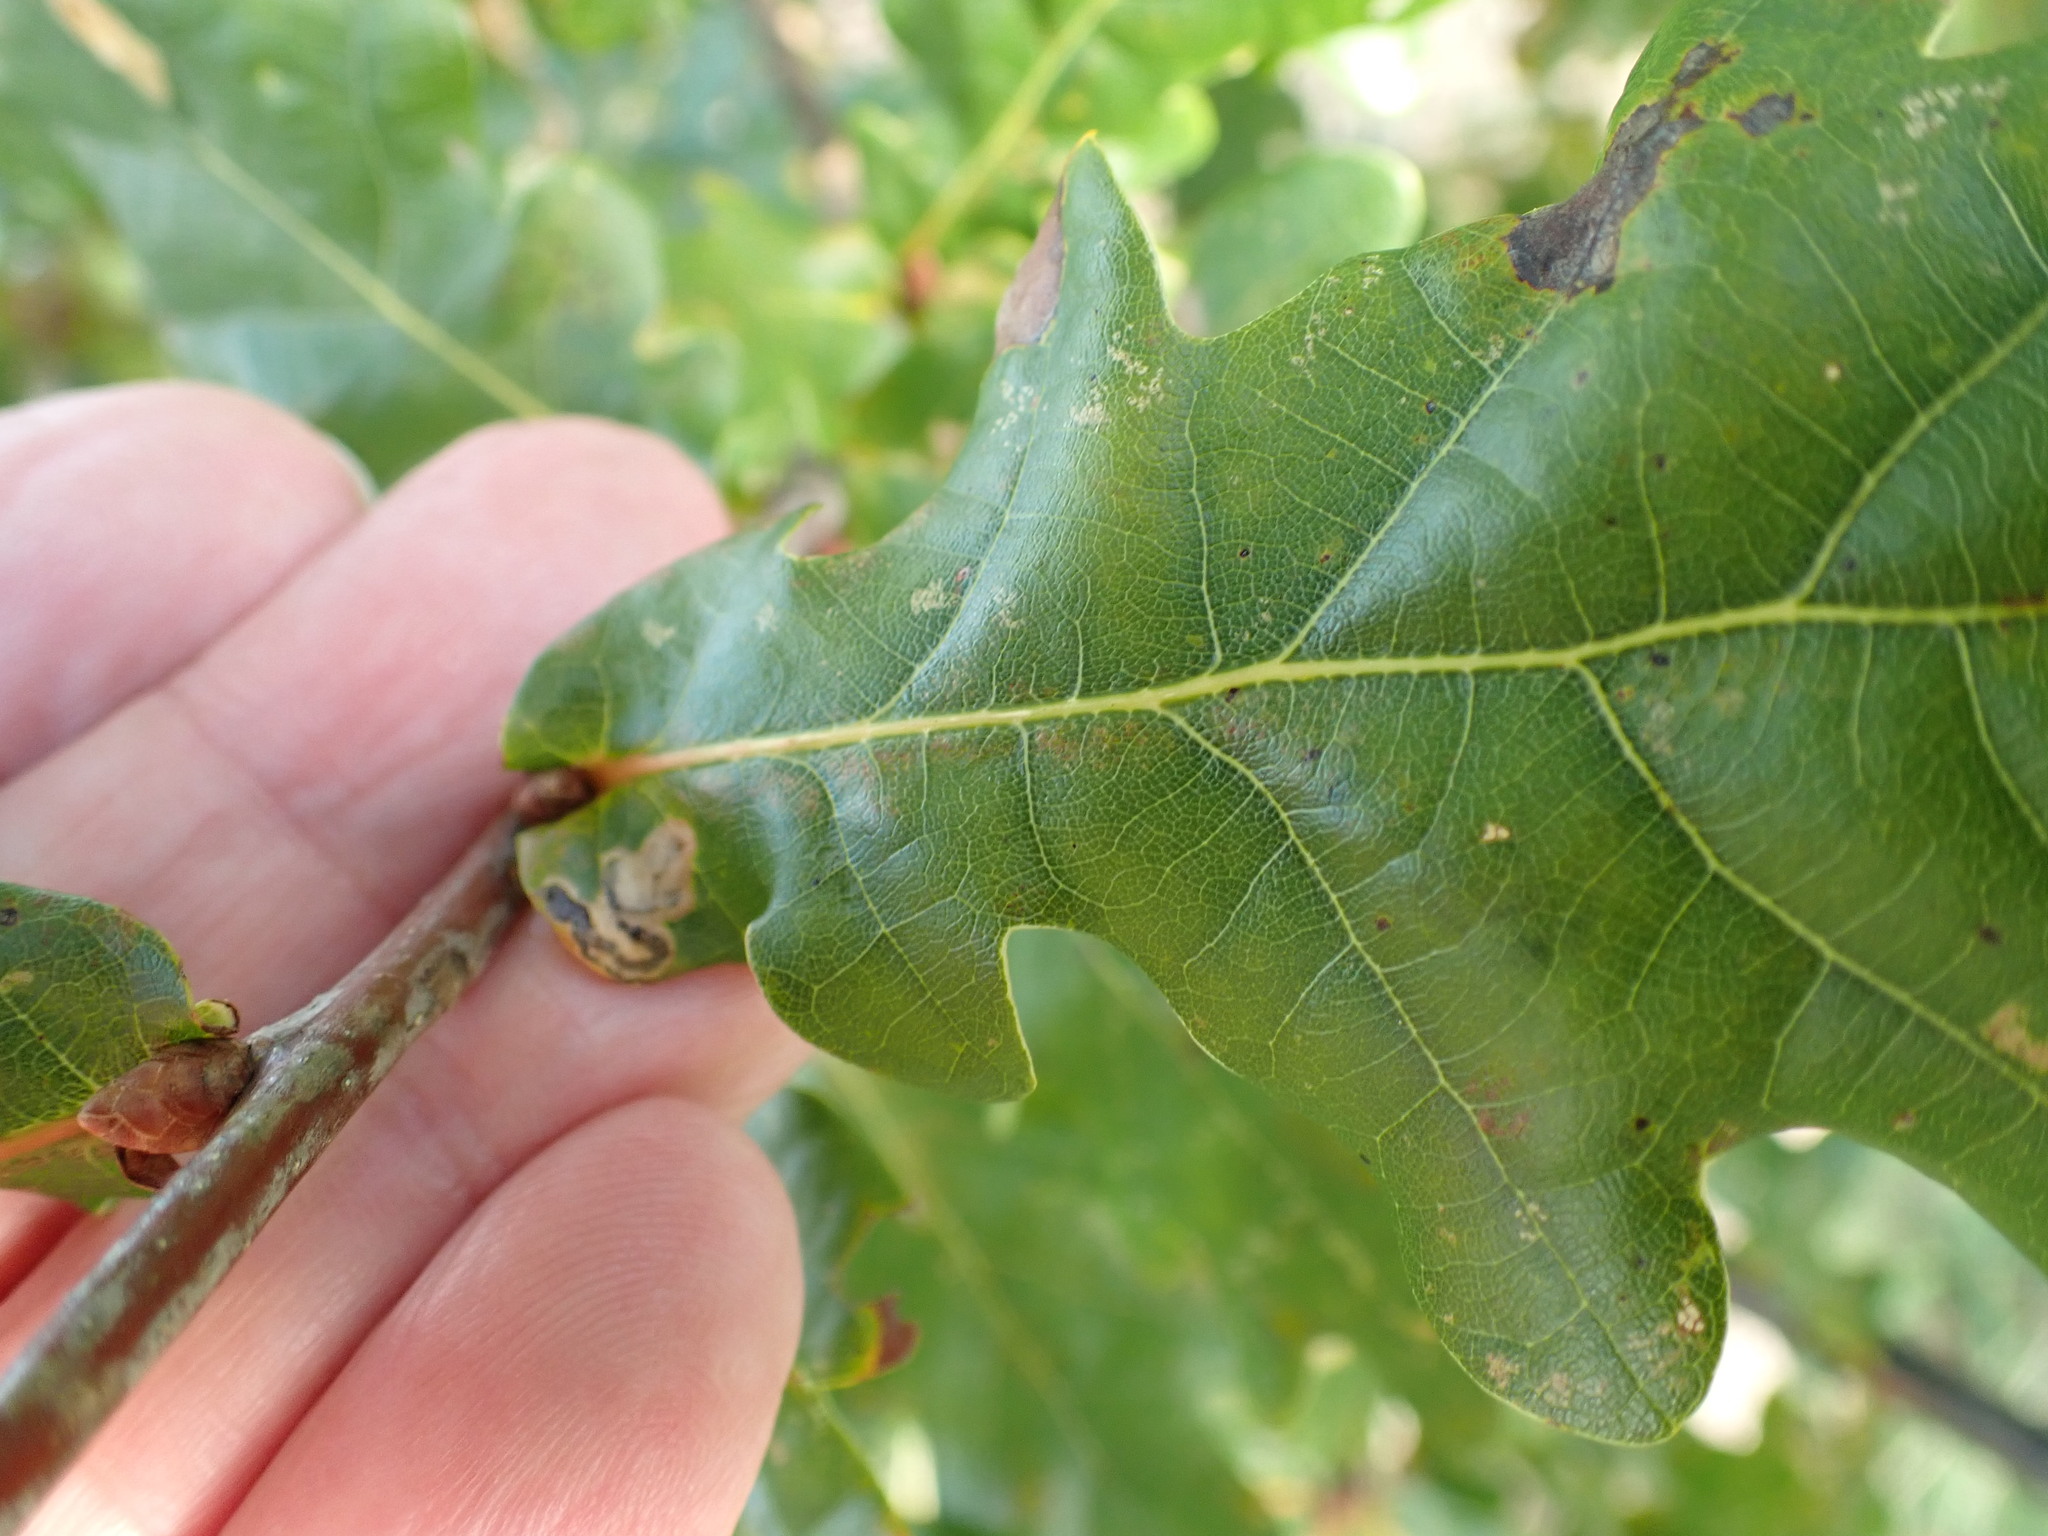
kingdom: Plantae
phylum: Tracheophyta
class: Magnoliopsida
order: Fagales
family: Fagaceae
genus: Quercus
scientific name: Quercus robur
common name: Pedunculate oak
